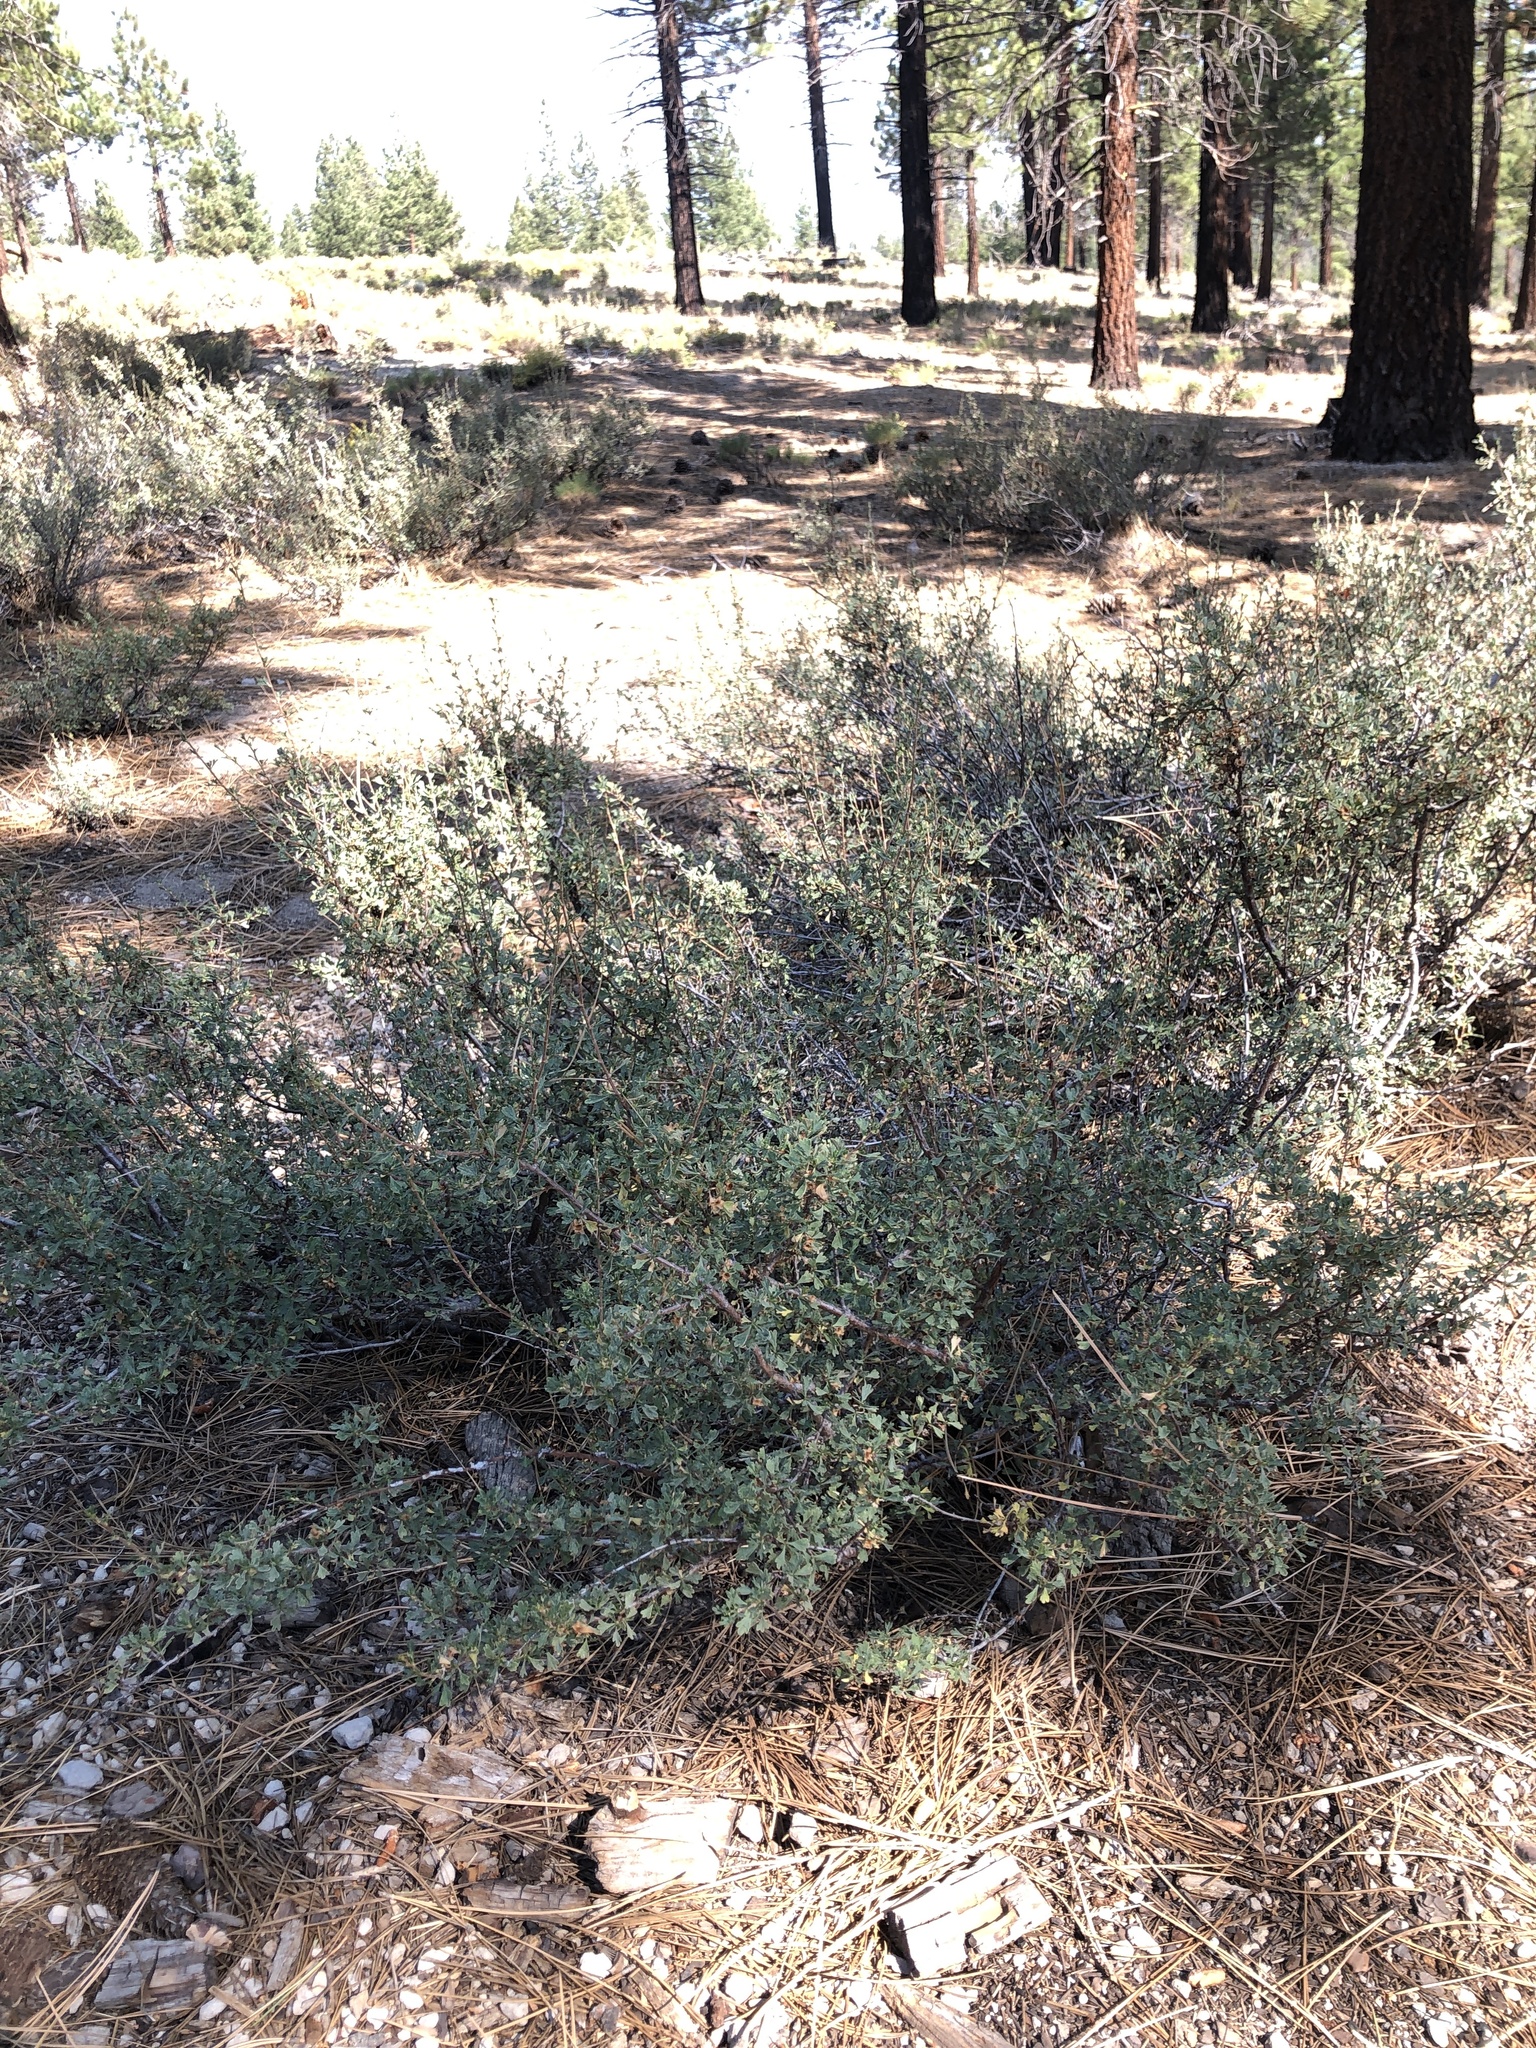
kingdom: Plantae
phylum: Tracheophyta
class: Magnoliopsida
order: Rosales
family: Rosaceae
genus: Purshia
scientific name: Purshia tridentata
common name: Antelope bitterbrush
